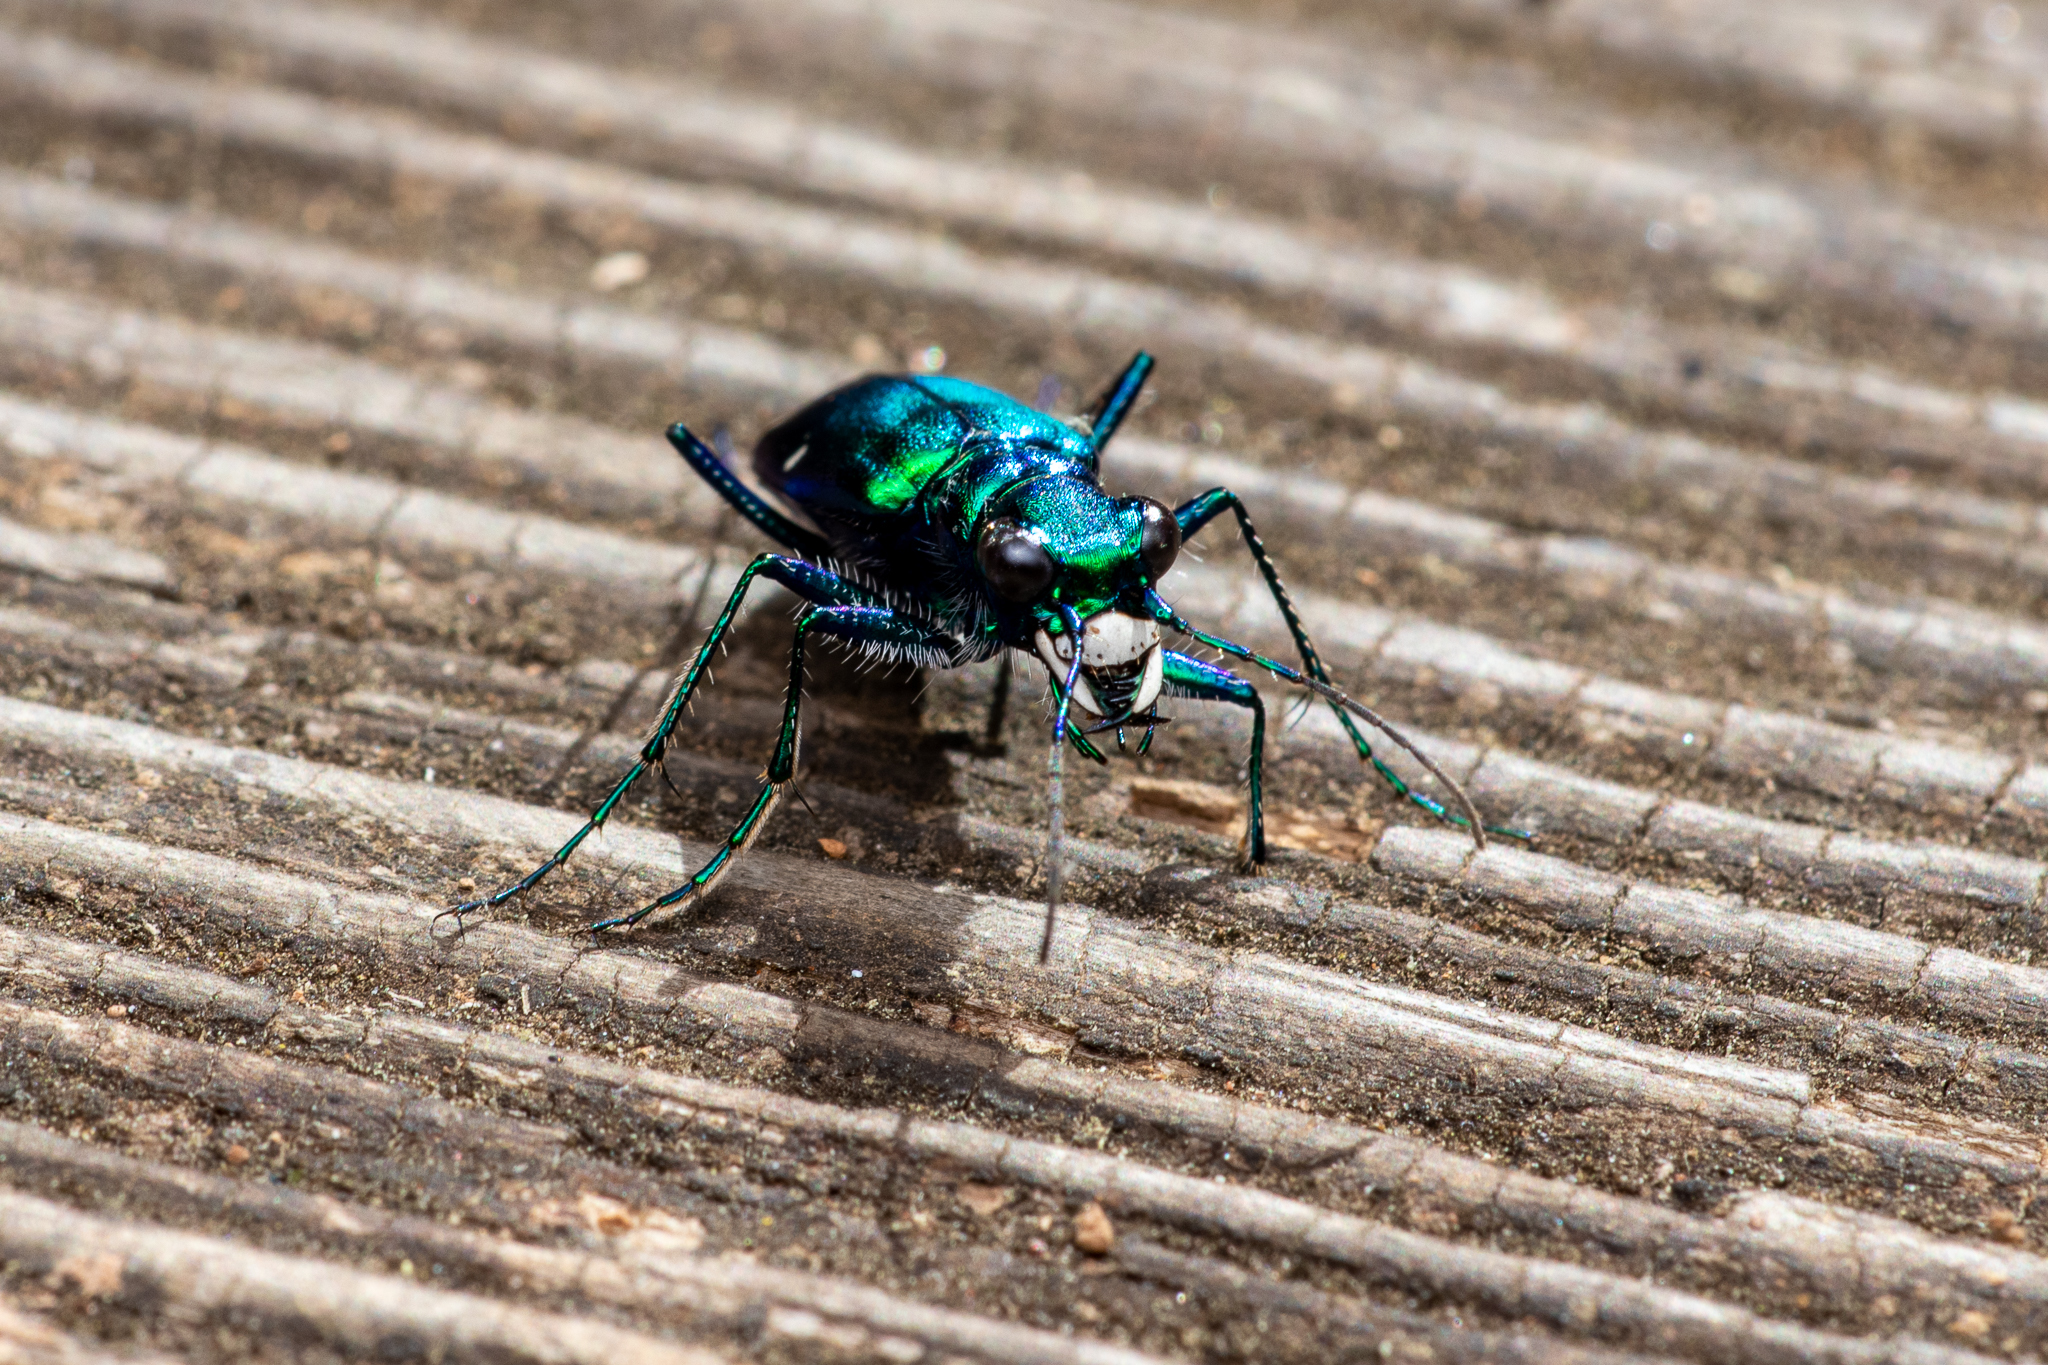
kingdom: Animalia
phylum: Arthropoda
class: Insecta
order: Coleoptera
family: Carabidae
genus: Cicindela
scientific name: Cicindela sexguttata
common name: Six-spotted tiger beetle
